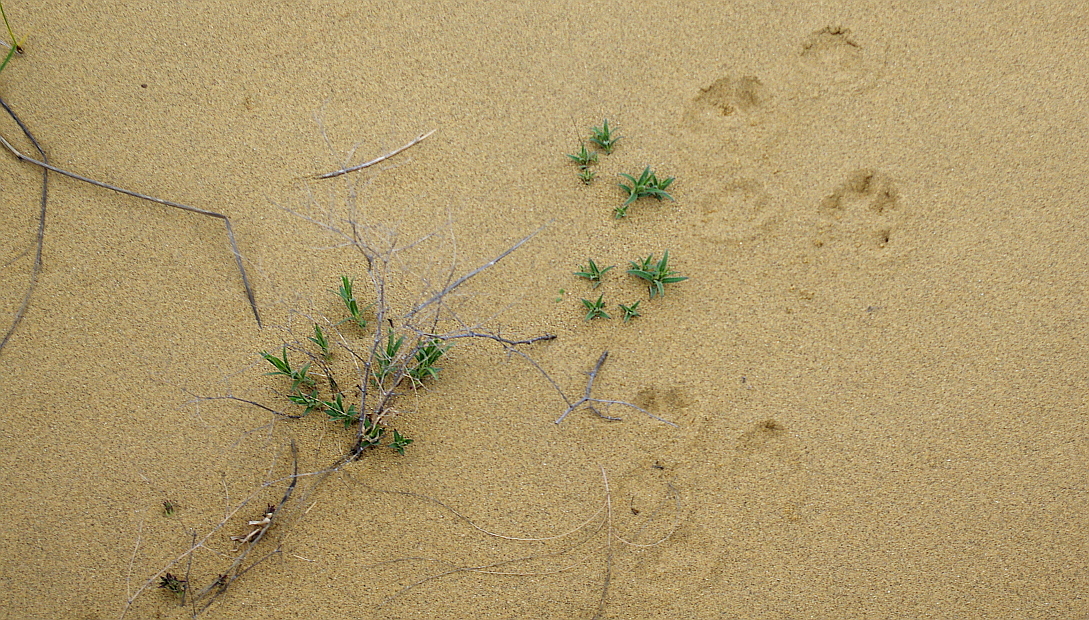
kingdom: Plantae
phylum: Tracheophyta
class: Magnoliopsida
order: Caryophyllales
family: Caryophyllaceae
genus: Gypsophila
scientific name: Gypsophila paniculata
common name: Baby's-breath
